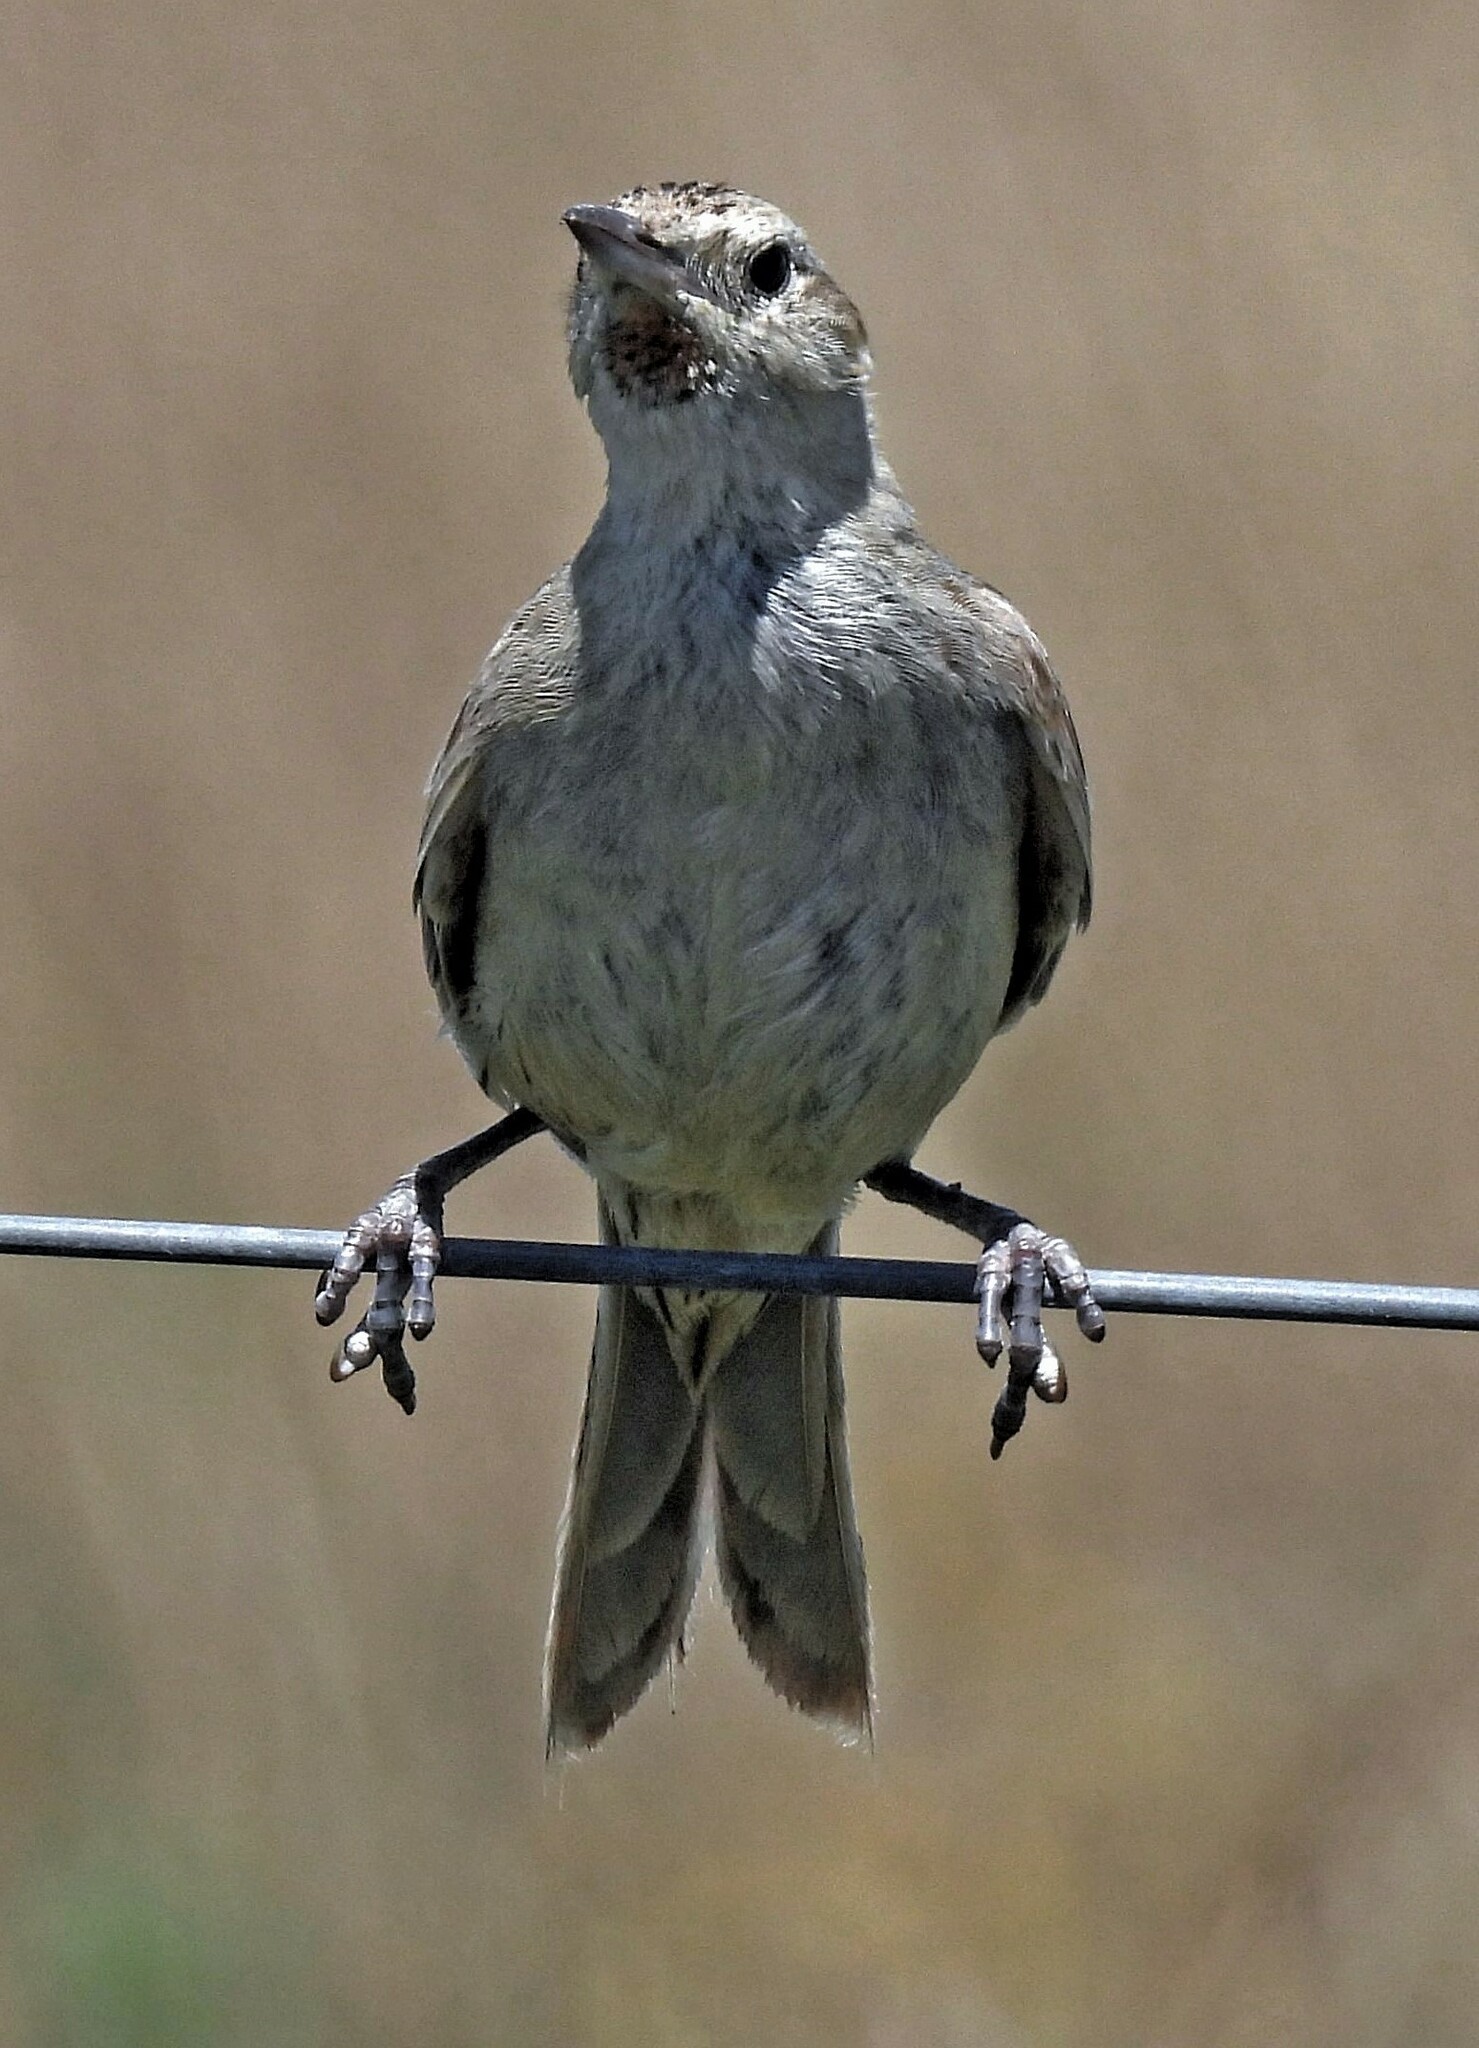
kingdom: Animalia
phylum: Chordata
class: Aves
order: Passeriformes
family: Furnariidae
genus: Asthenes
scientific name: Asthenes hudsoni
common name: Hudson's canastero
